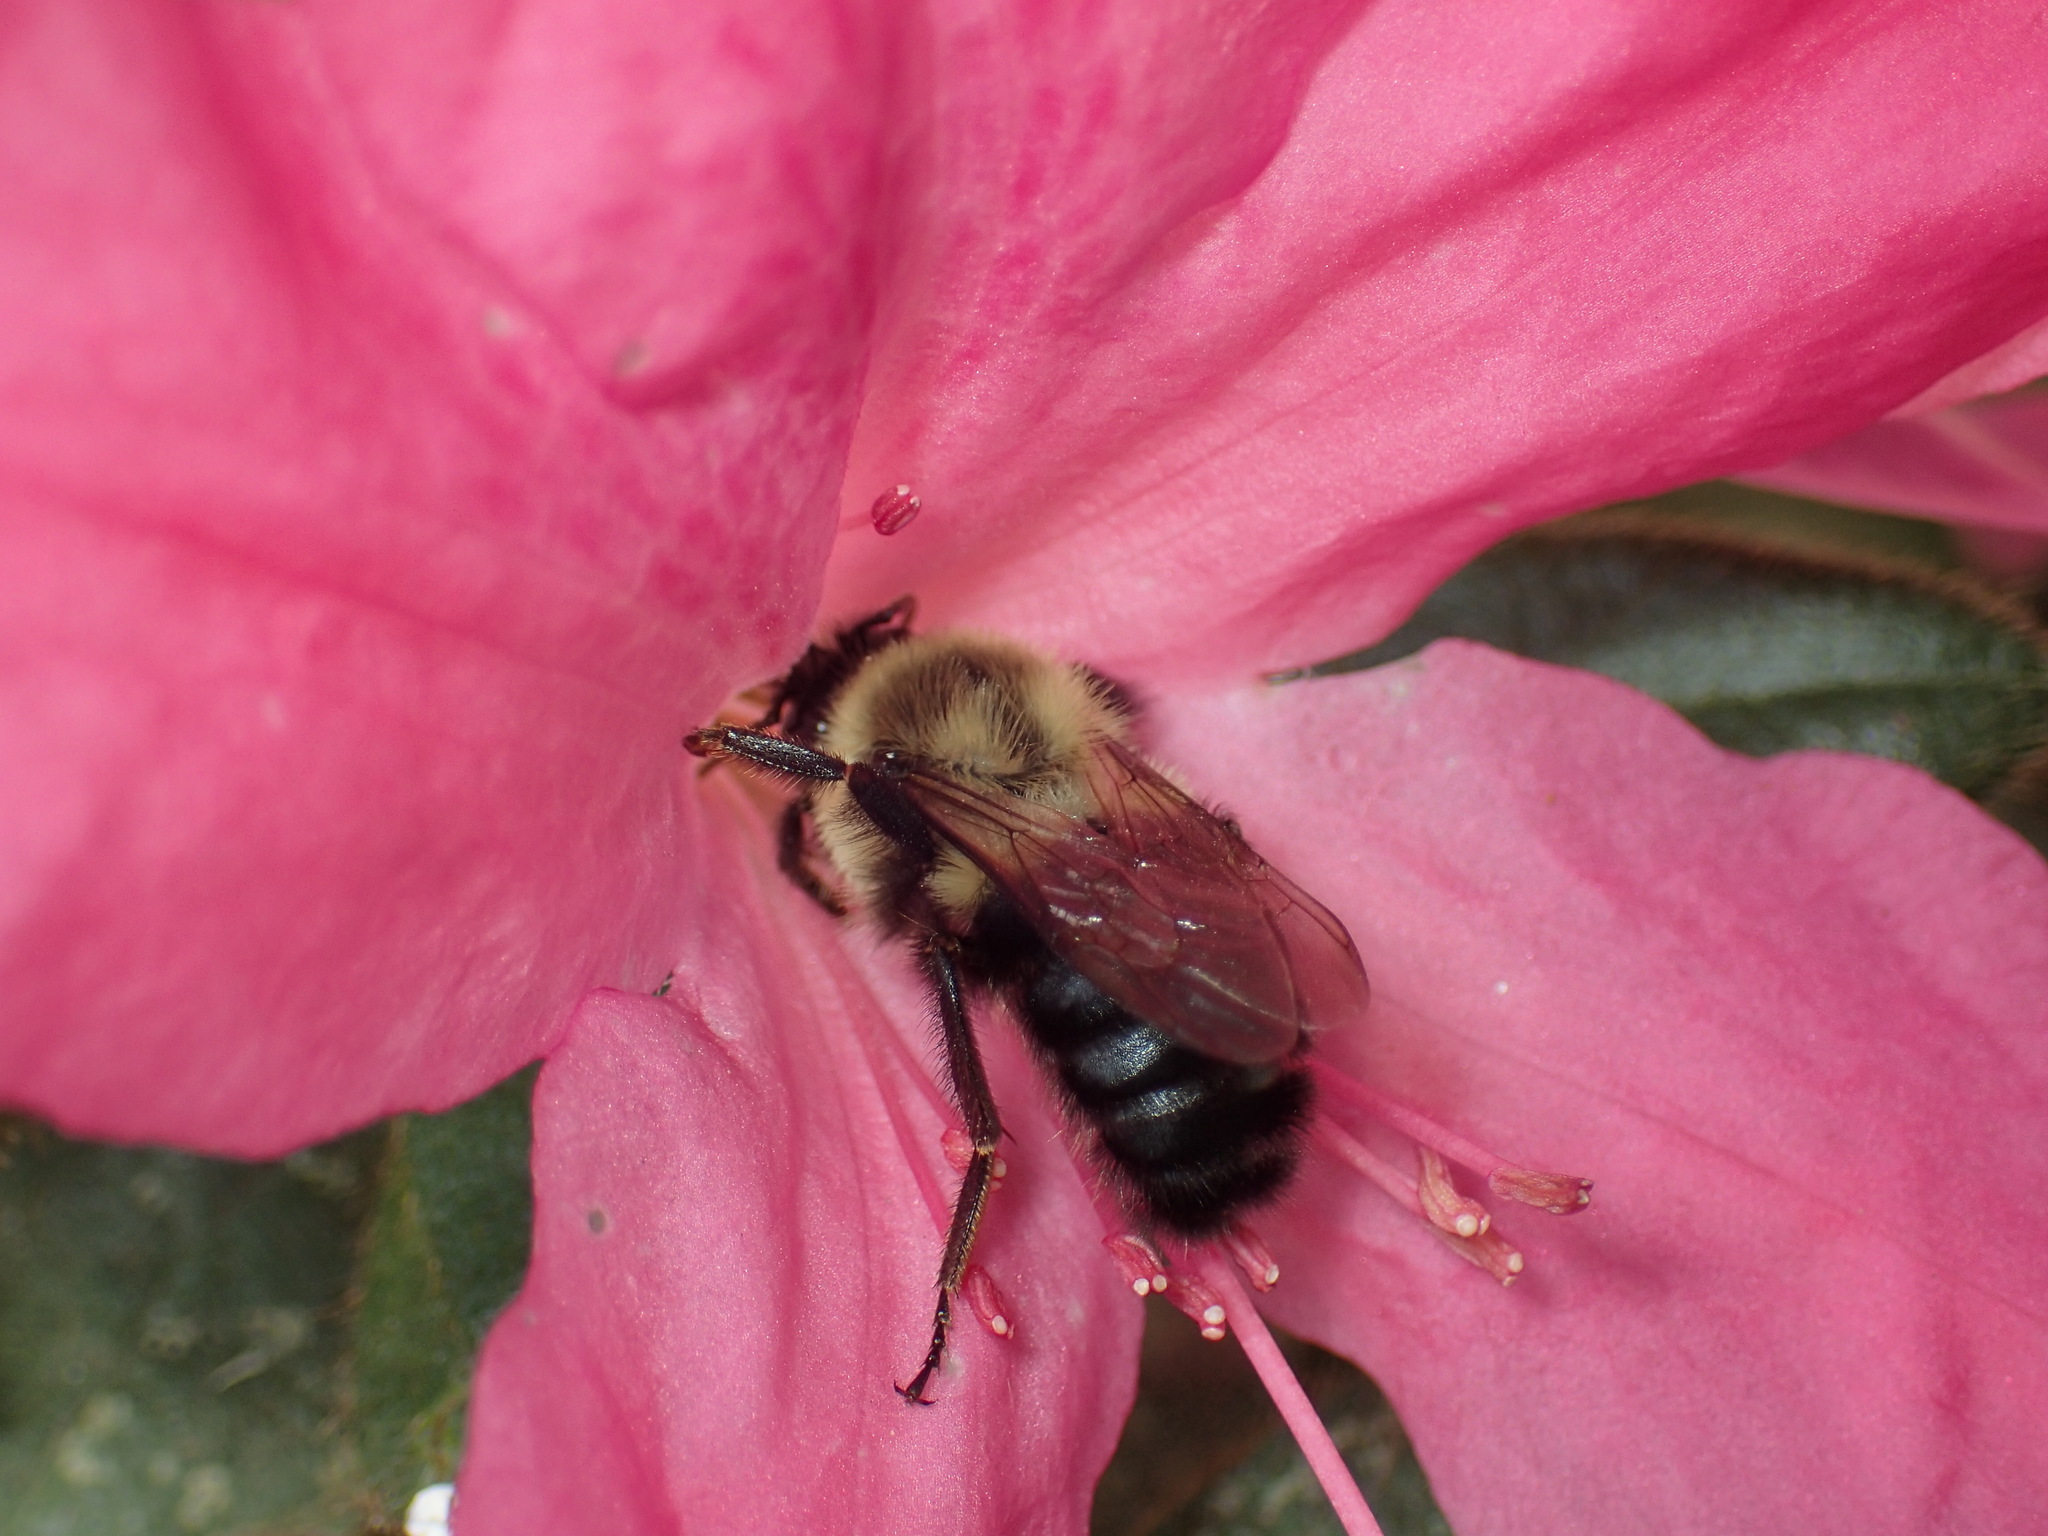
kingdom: Animalia
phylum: Arthropoda
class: Insecta
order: Hymenoptera
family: Apidae
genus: Bombus
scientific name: Bombus impatiens
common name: Common eastern bumble bee
